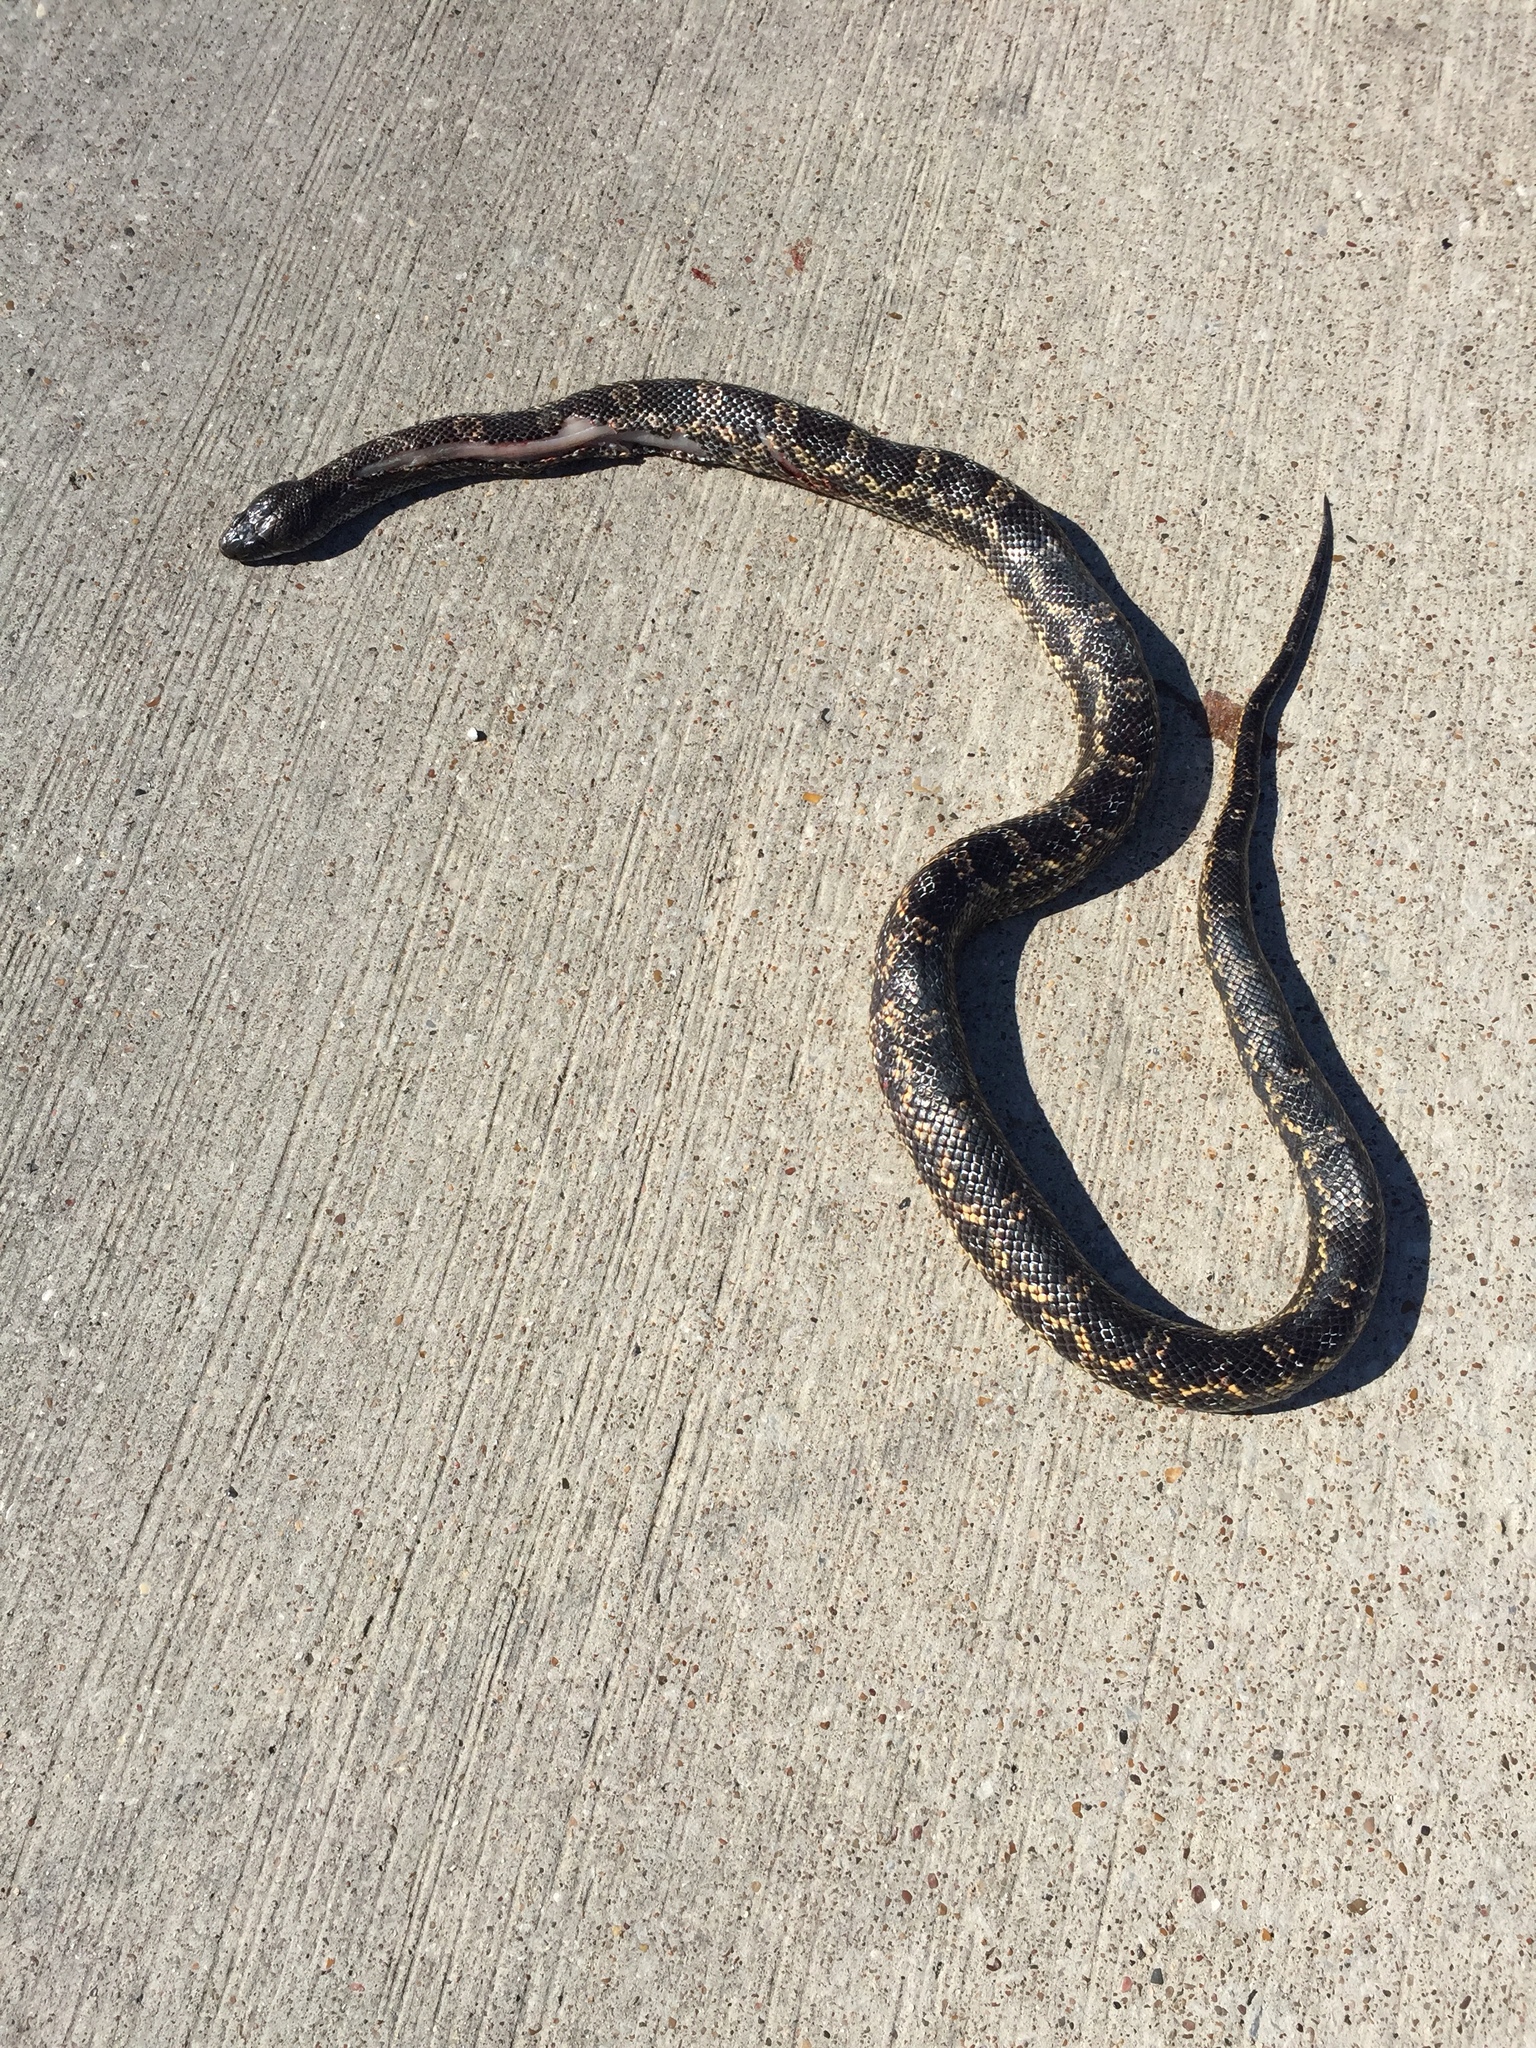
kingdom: Animalia
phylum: Chordata
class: Squamata
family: Colubridae
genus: Pantherophis
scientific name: Pantherophis obsoletus
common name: Black rat snake
